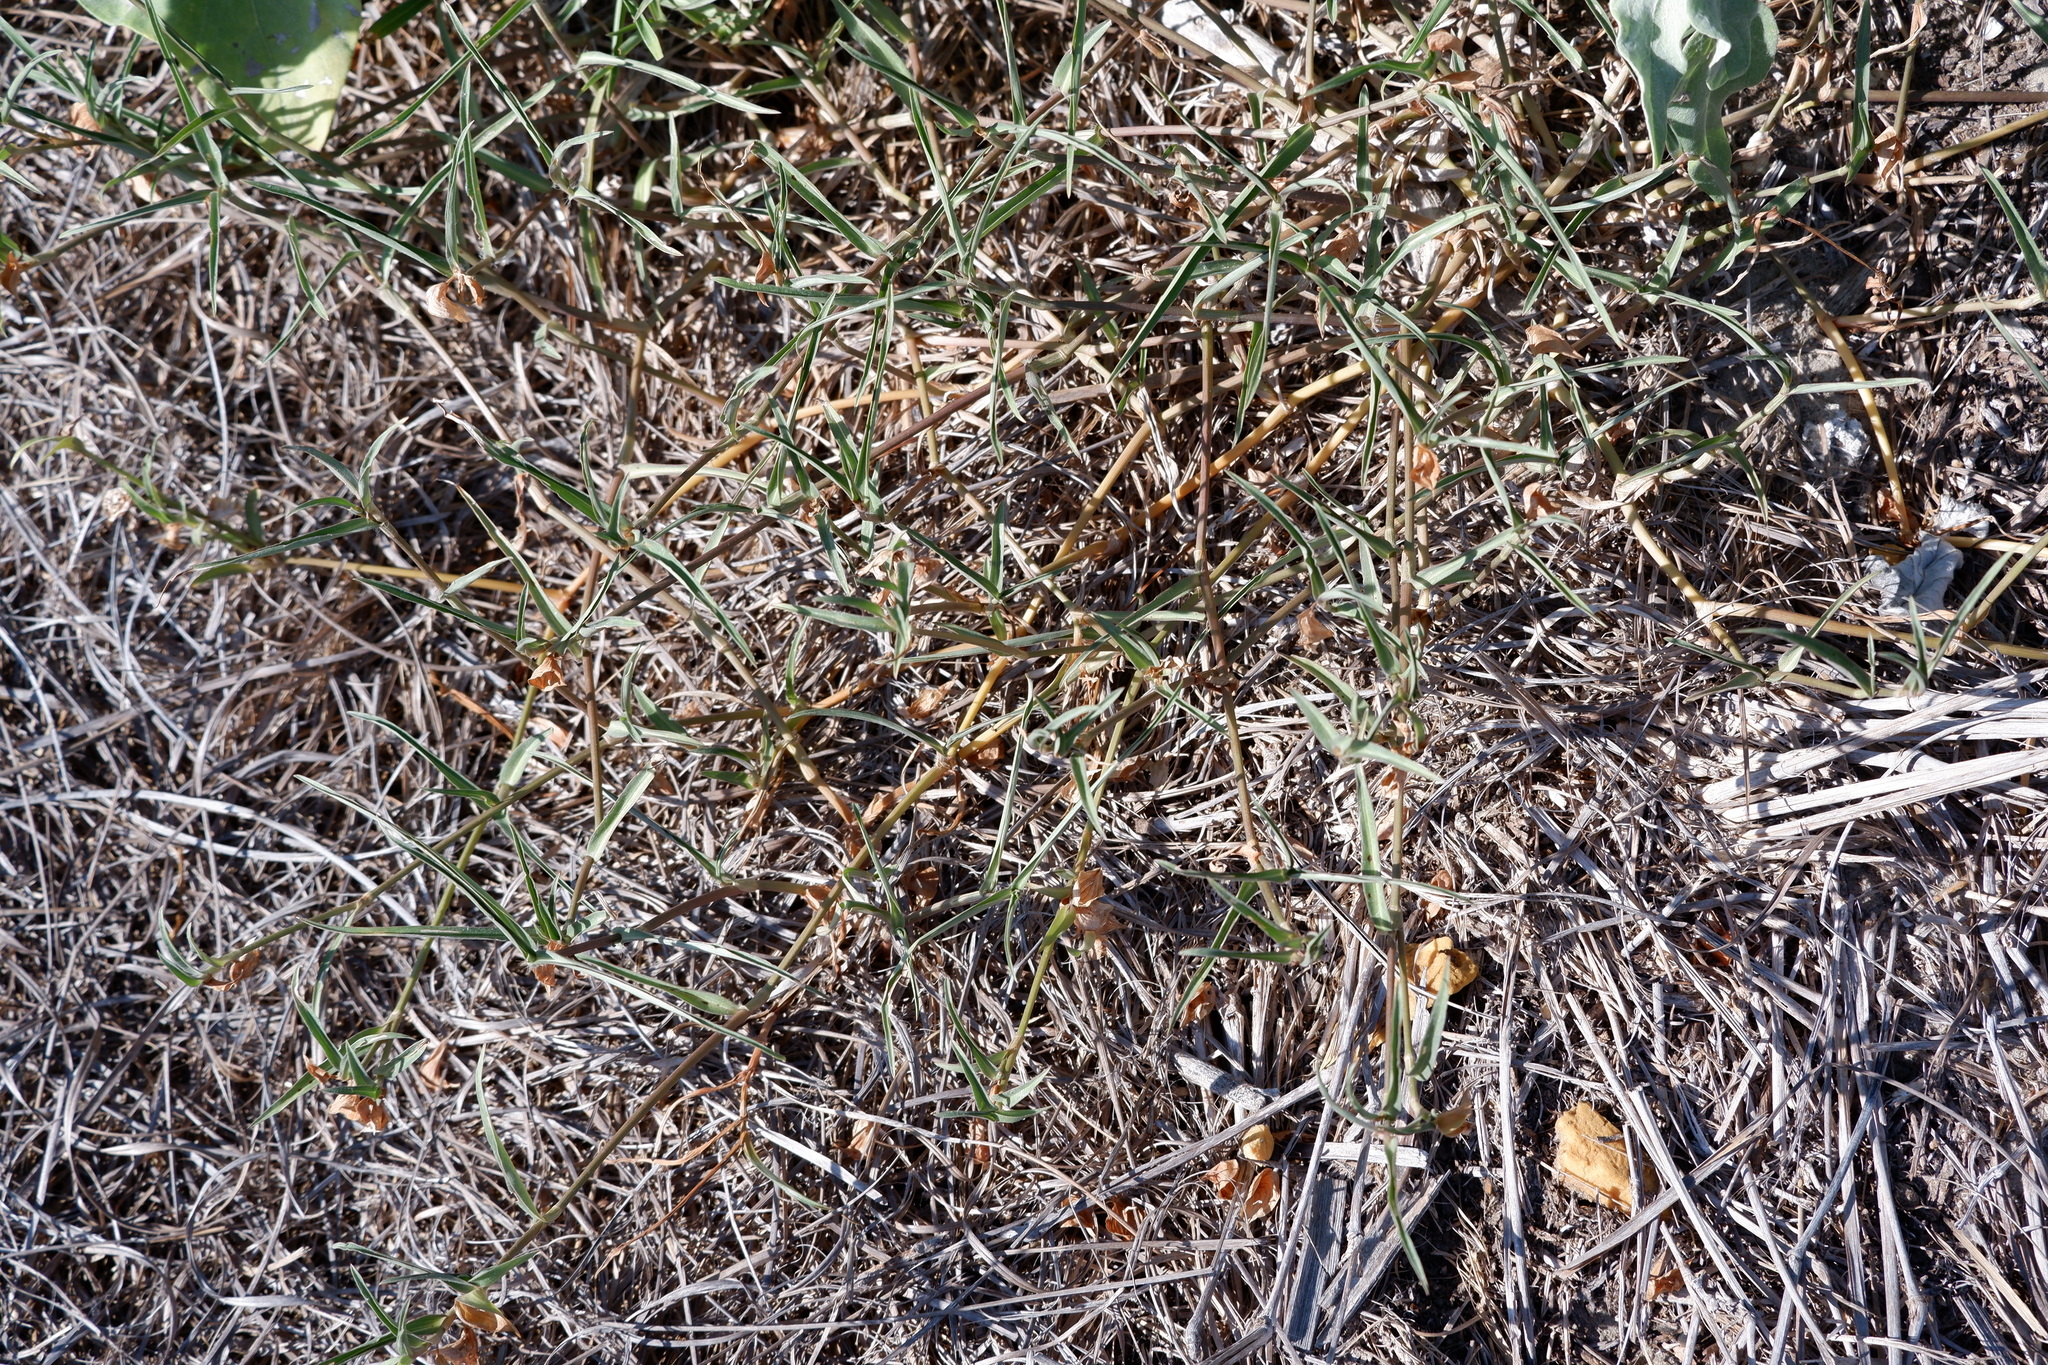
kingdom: Plantae
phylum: Tracheophyta
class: Liliopsida
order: Commelinales
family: Commelinaceae
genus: Commelina
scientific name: Commelina erecta
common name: Blousel blommetjie
